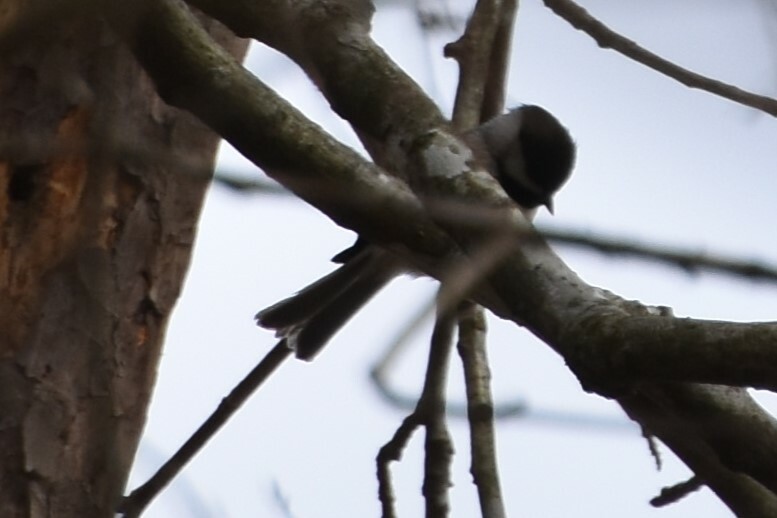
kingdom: Animalia
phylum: Chordata
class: Aves
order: Passeriformes
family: Paridae
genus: Poecile
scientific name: Poecile carolinensis
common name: Carolina chickadee
